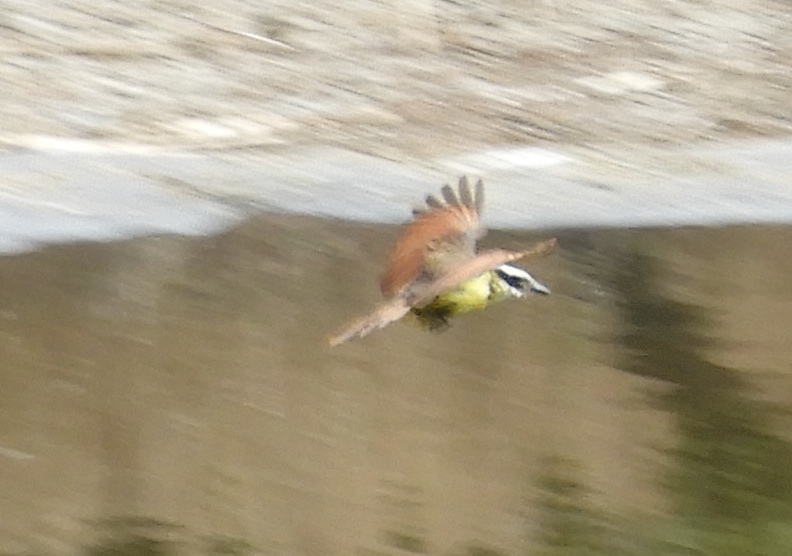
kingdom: Animalia
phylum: Chordata
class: Aves
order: Passeriformes
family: Tyrannidae
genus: Pitangus
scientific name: Pitangus sulphuratus
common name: Great kiskadee
